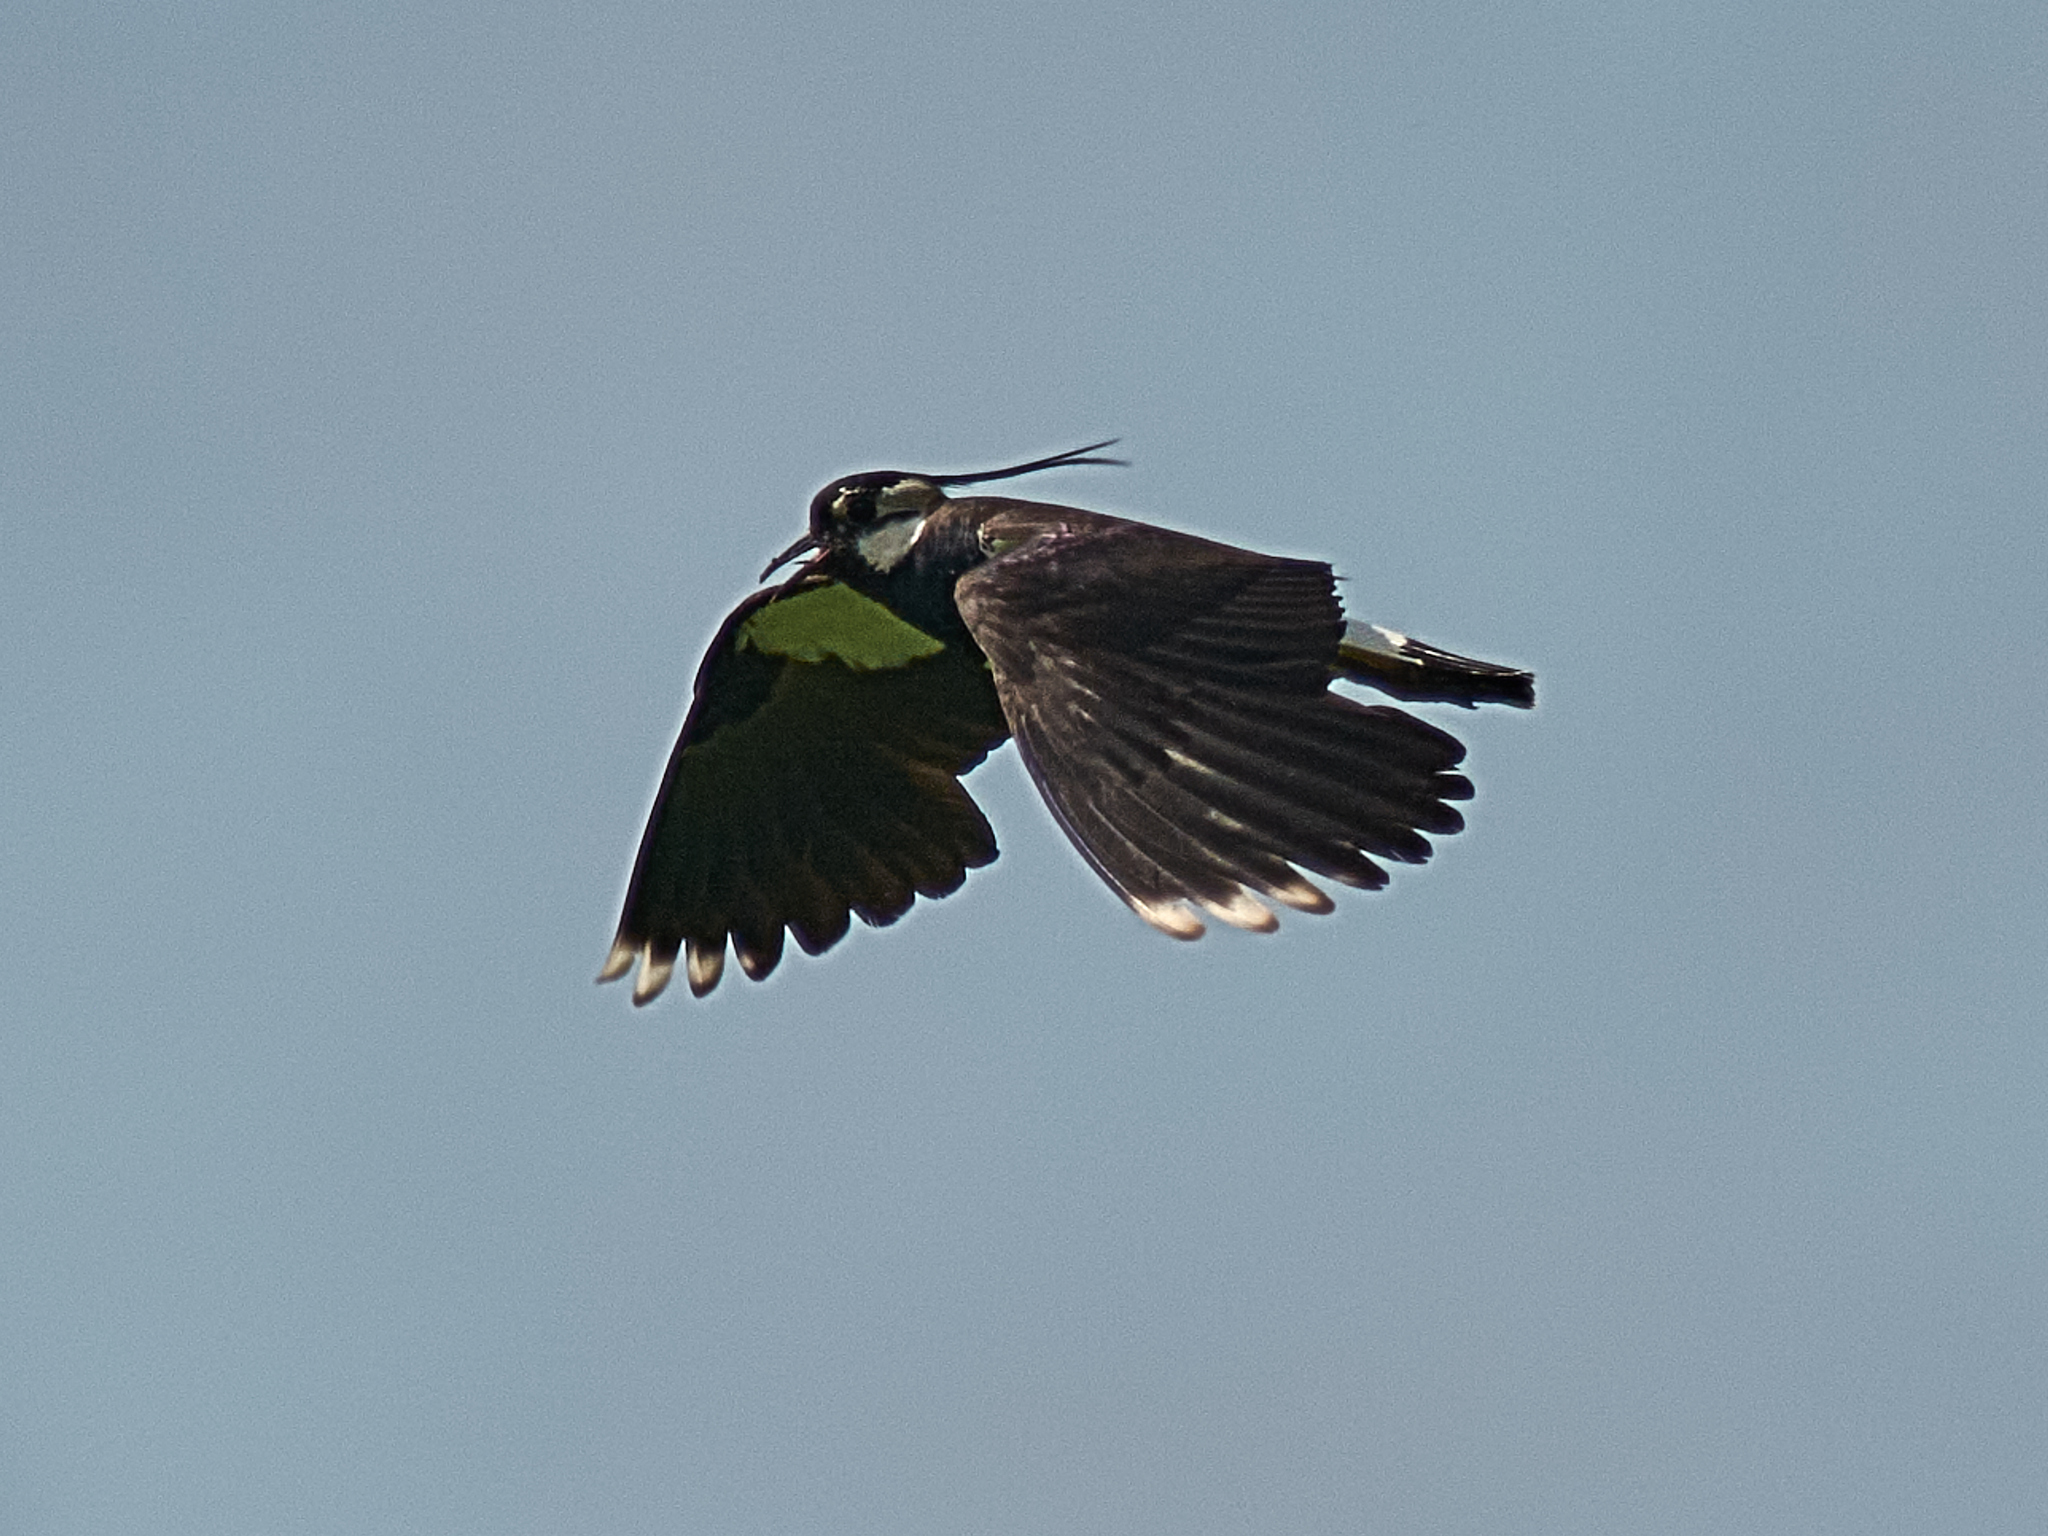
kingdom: Animalia
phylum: Chordata
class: Aves
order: Charadriiformes
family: Charadriidae
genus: Vanellus
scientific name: Vanellus vanellus
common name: Northern lapwing
